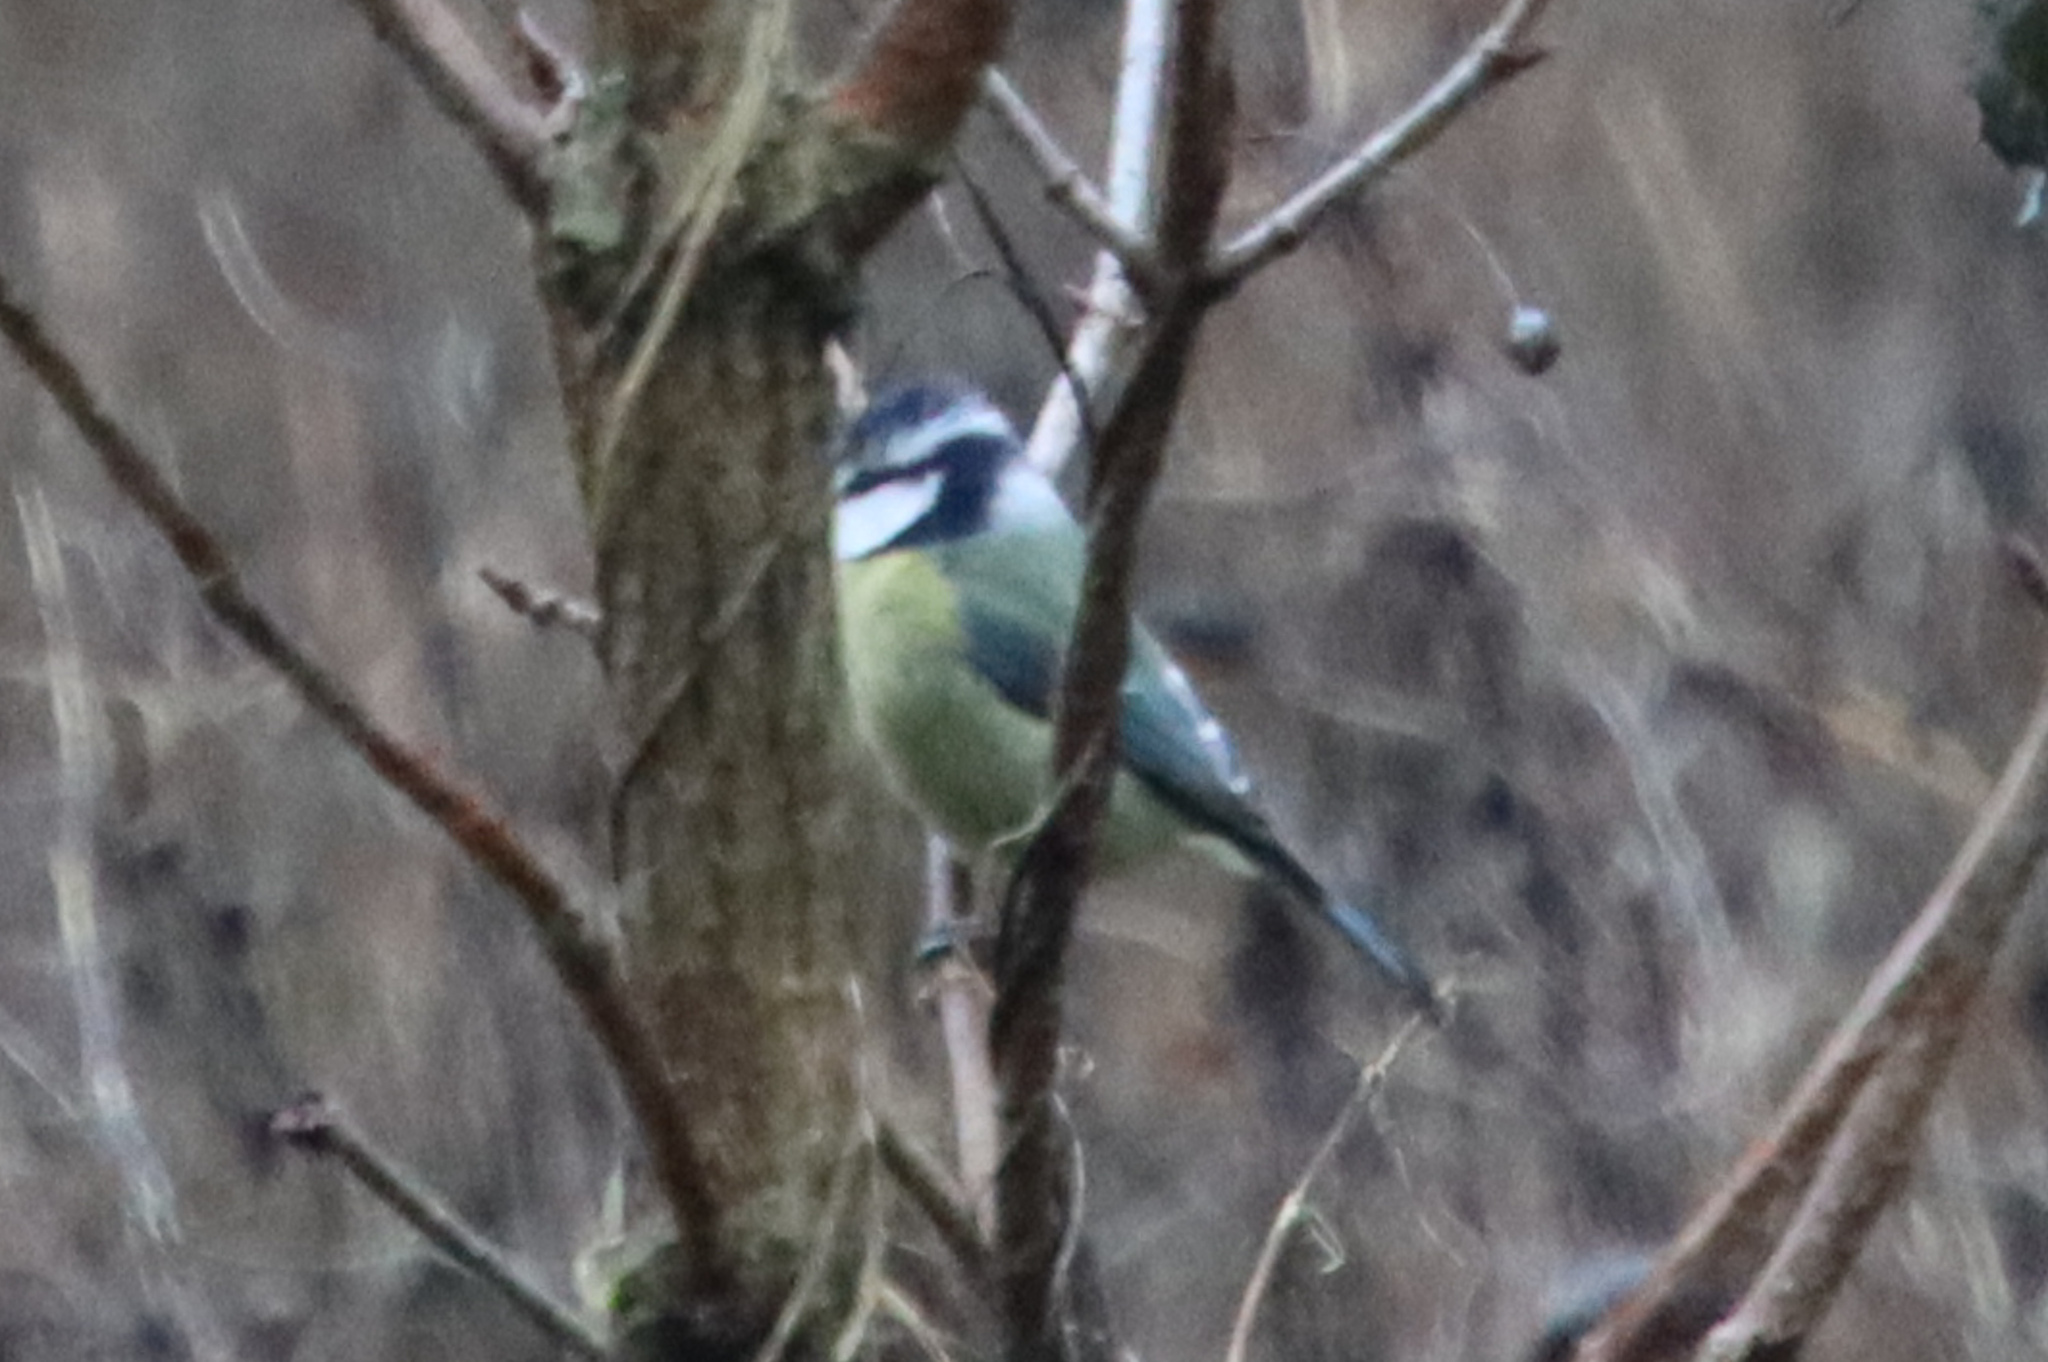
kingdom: Animalia
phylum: Chordata
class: Aves
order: Passeriformes
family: Paridae
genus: Cyanistes
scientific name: Cyanistes caeruleus
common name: Eurasian blue tit
